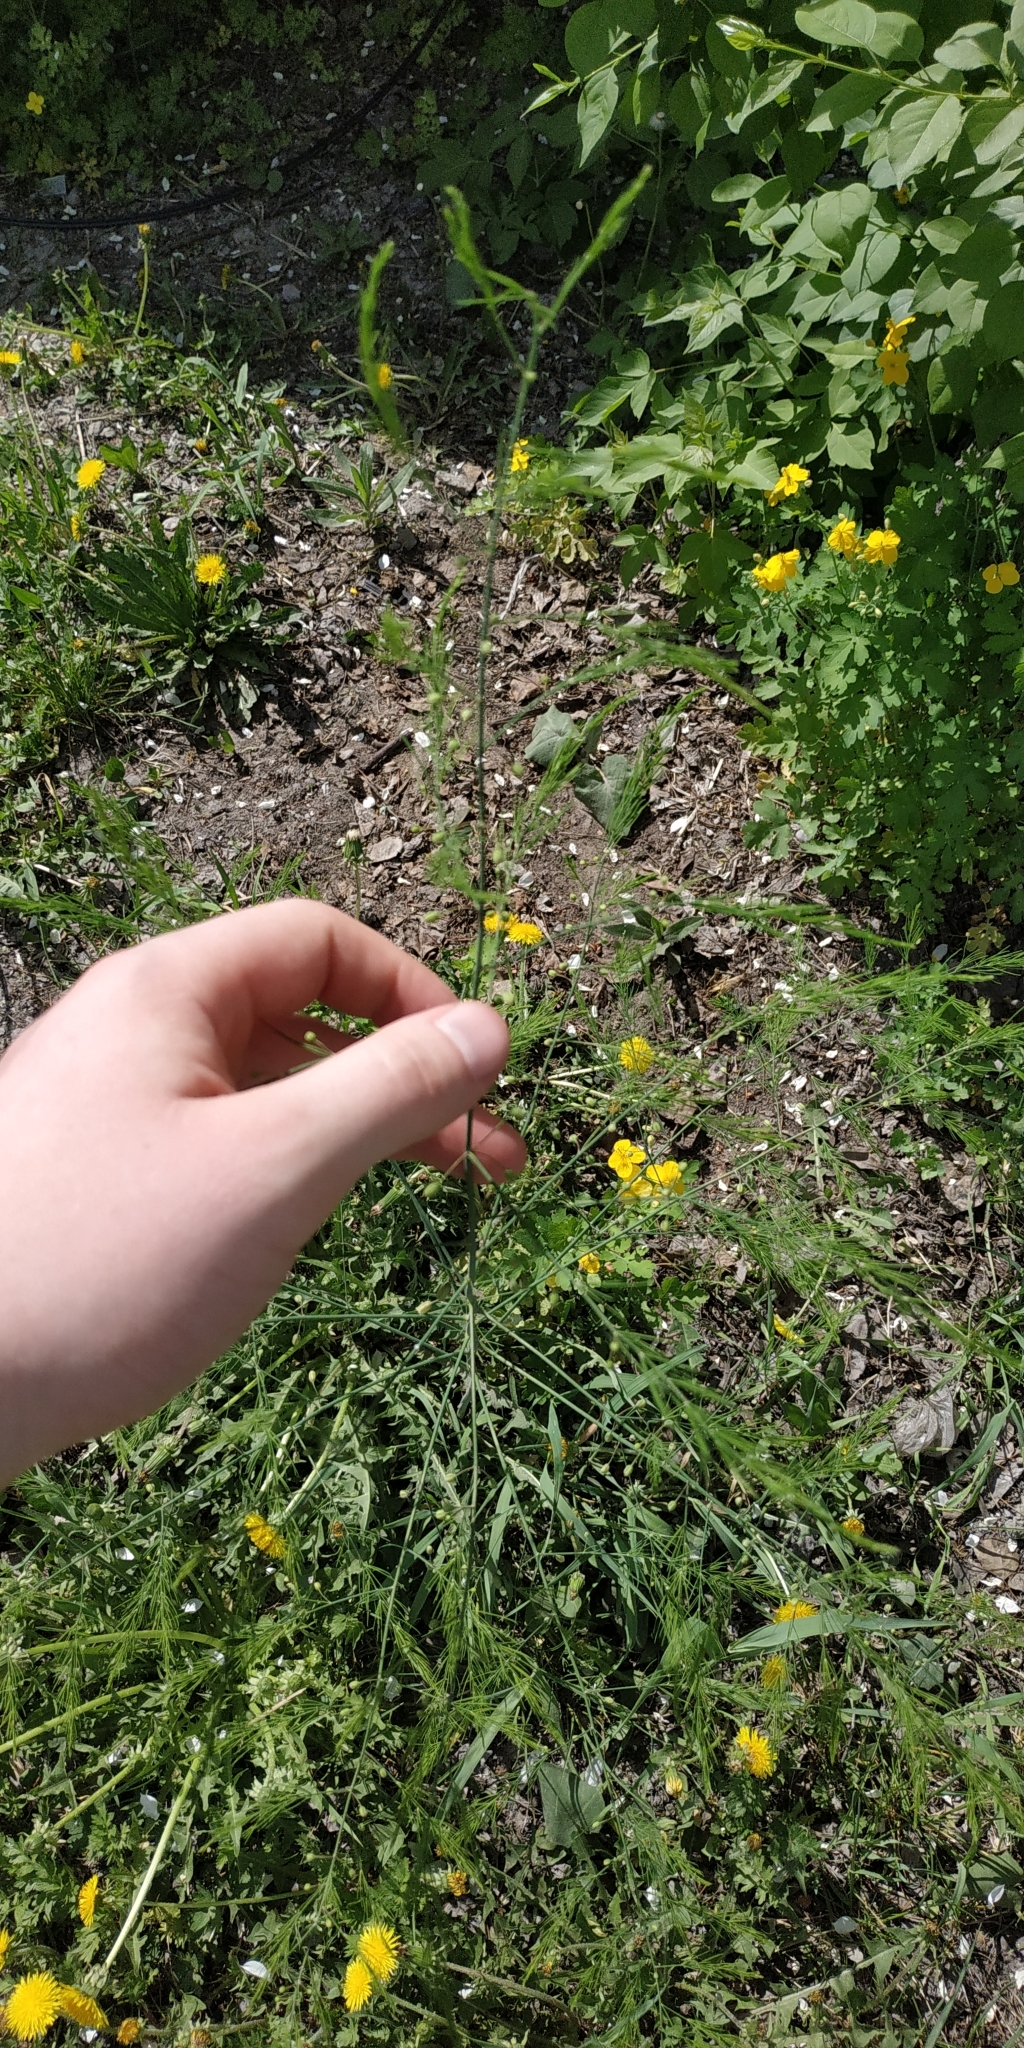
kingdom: Plantae
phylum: Tracheophyta
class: Liliopsida
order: Asparagales
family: Asparagaceae
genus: Asparagus
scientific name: Asparagus officinalis
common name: Garden asparagus
